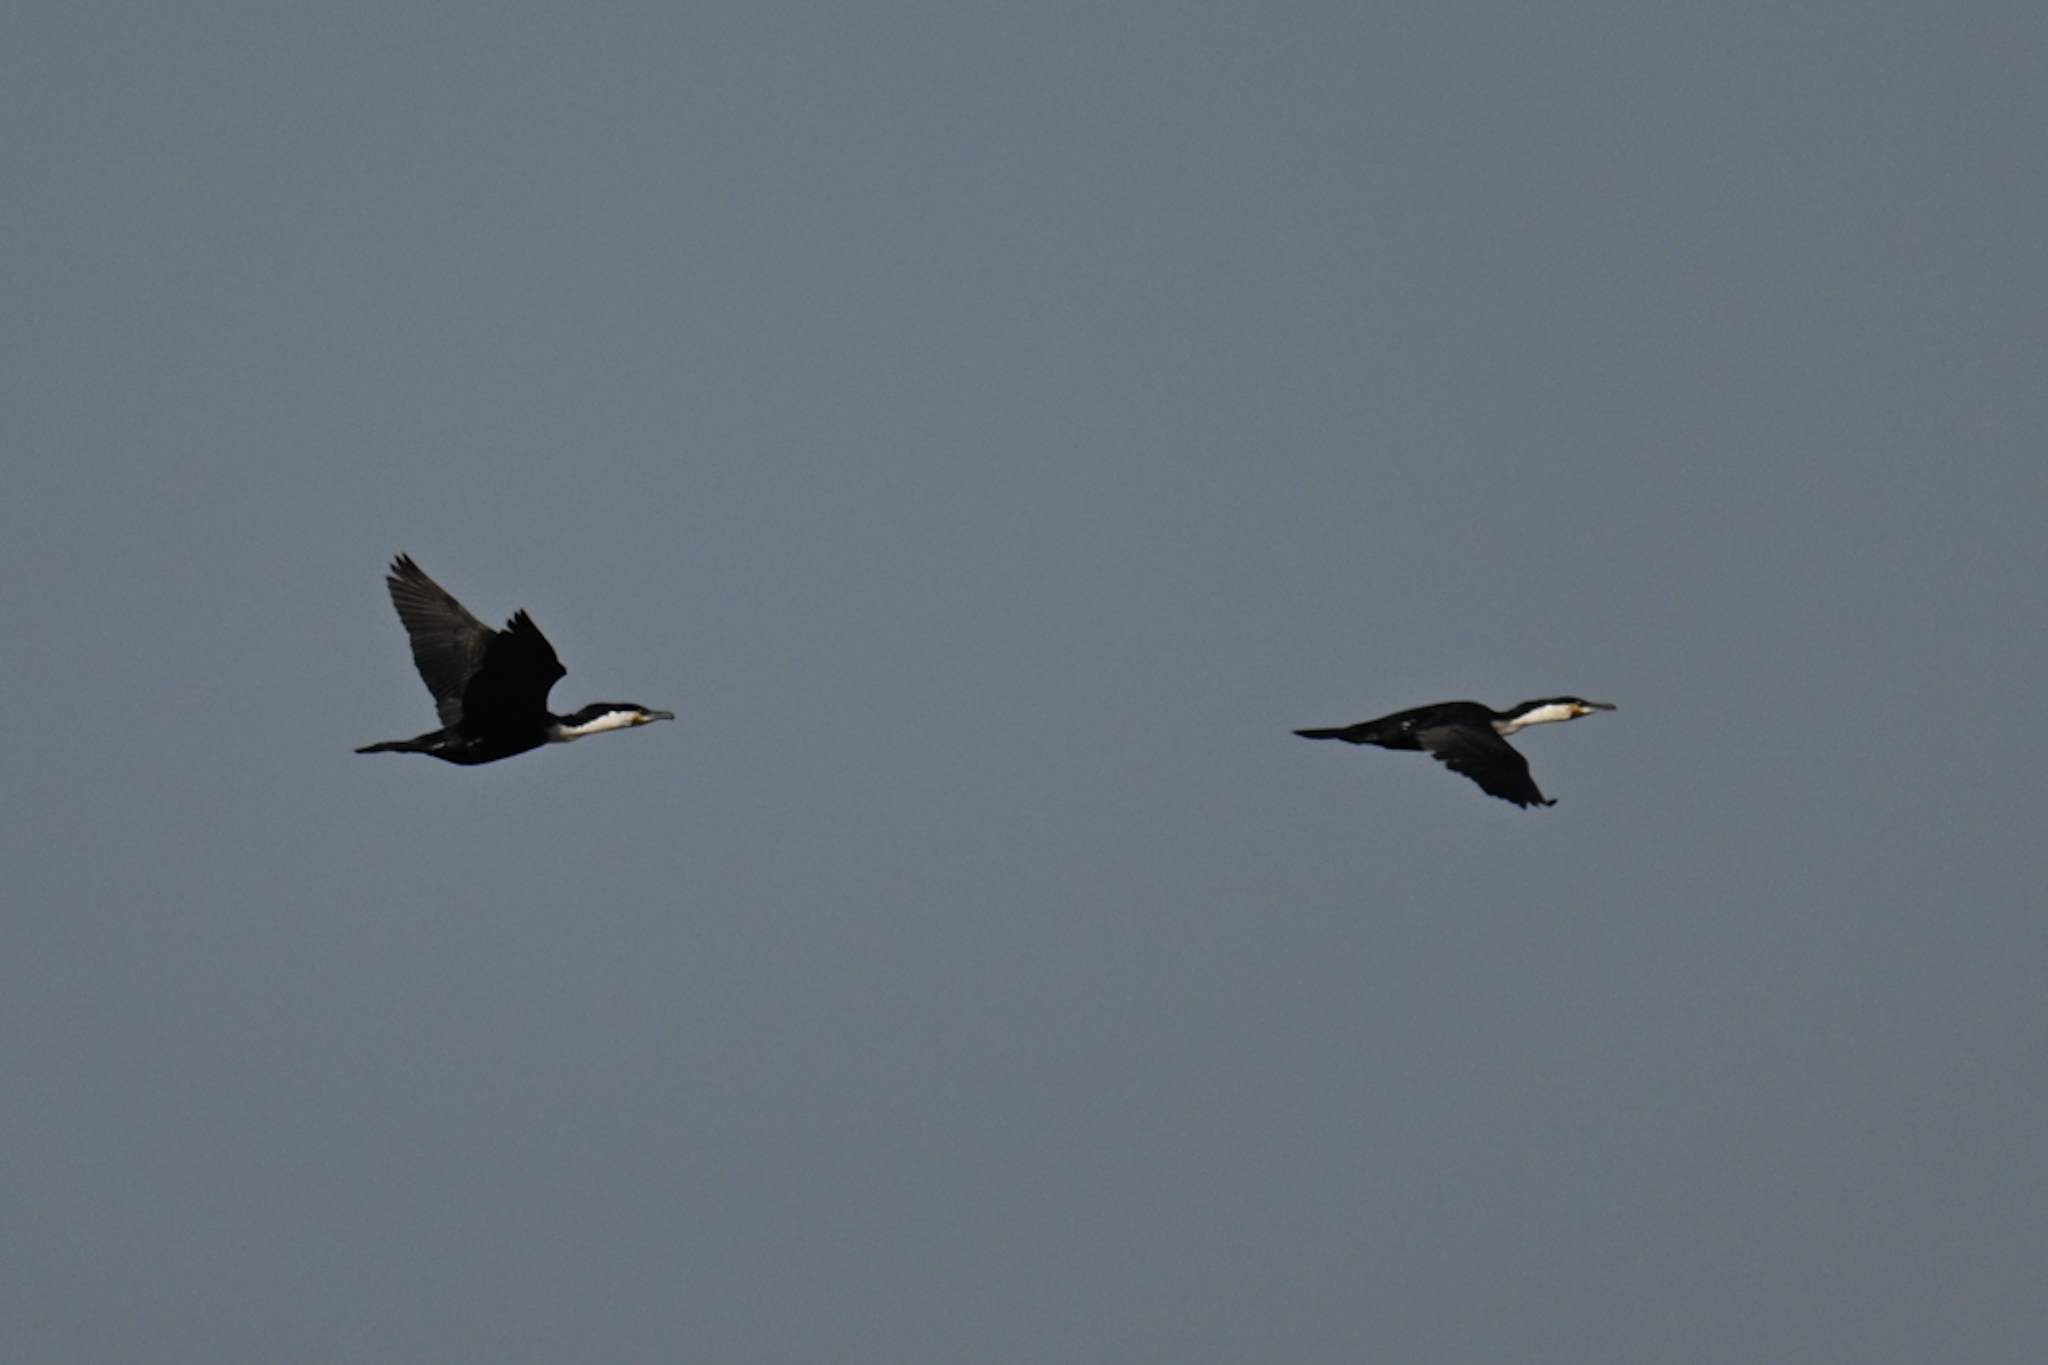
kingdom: Animalia
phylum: Chordata
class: Aves
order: Suliformes
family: Phalacrocoracidae
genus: Phalacrocorax
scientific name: Phalacrocorax carbo
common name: Great cormorant
